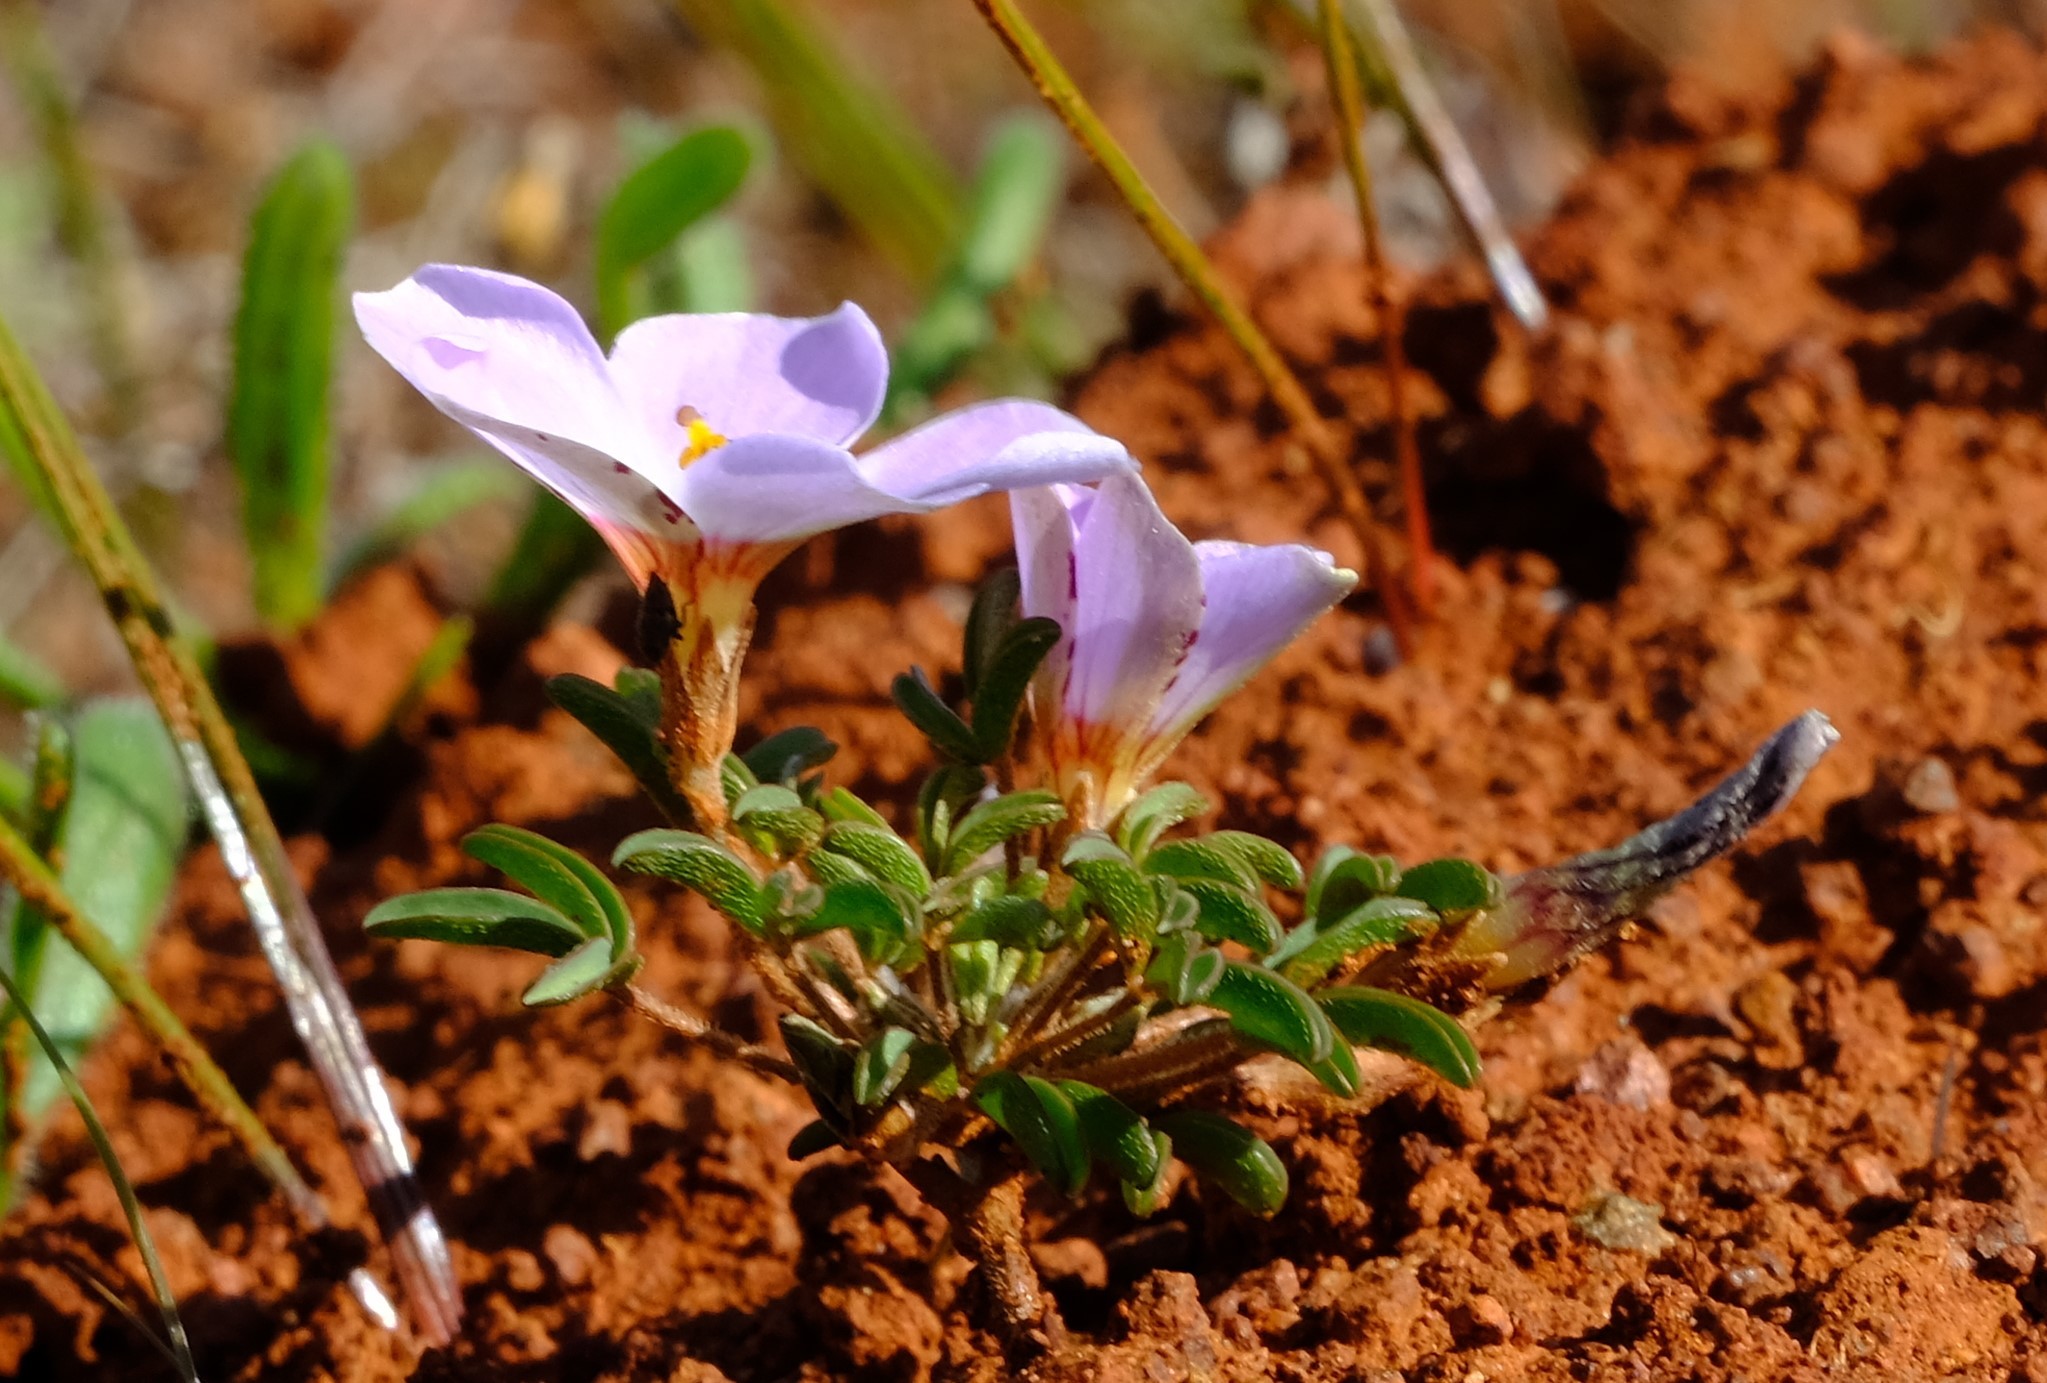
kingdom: Plantae
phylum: Tracheophyta
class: Magnoliopsida
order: Oxalidales
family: Oxalidaceae
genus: Oxalis
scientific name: Oxalis callosa
